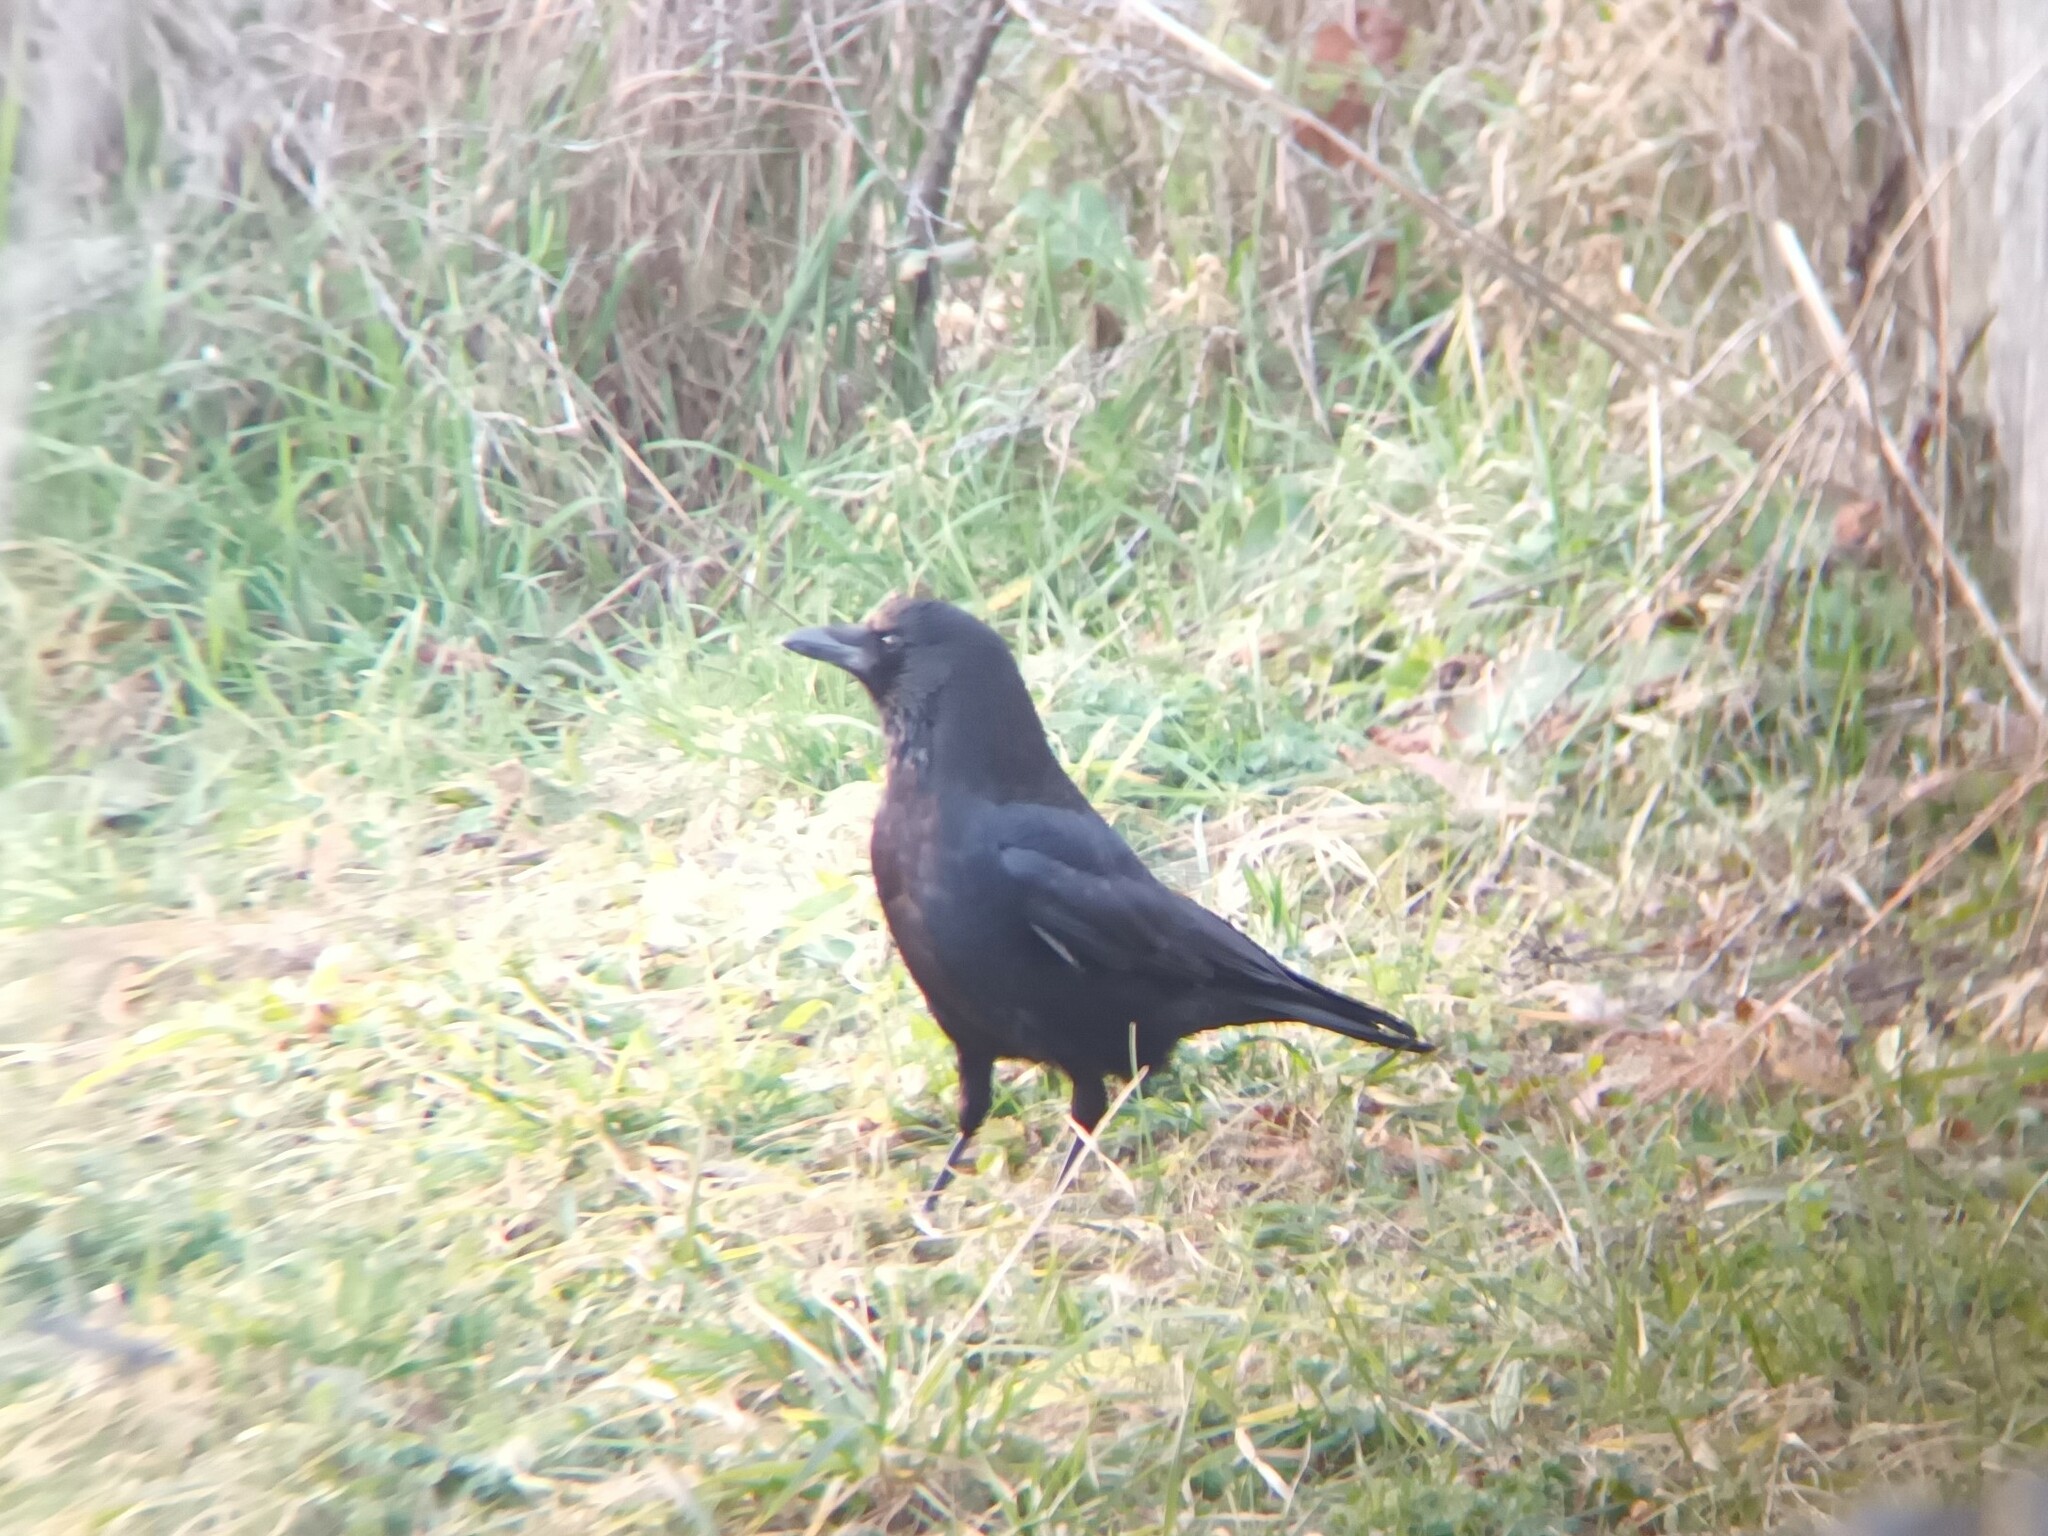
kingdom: Animalia
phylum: Chordata
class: Aves
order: Passeriformes
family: Corvidae
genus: Corvus
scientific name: Corvus corone
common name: Carrion crow
